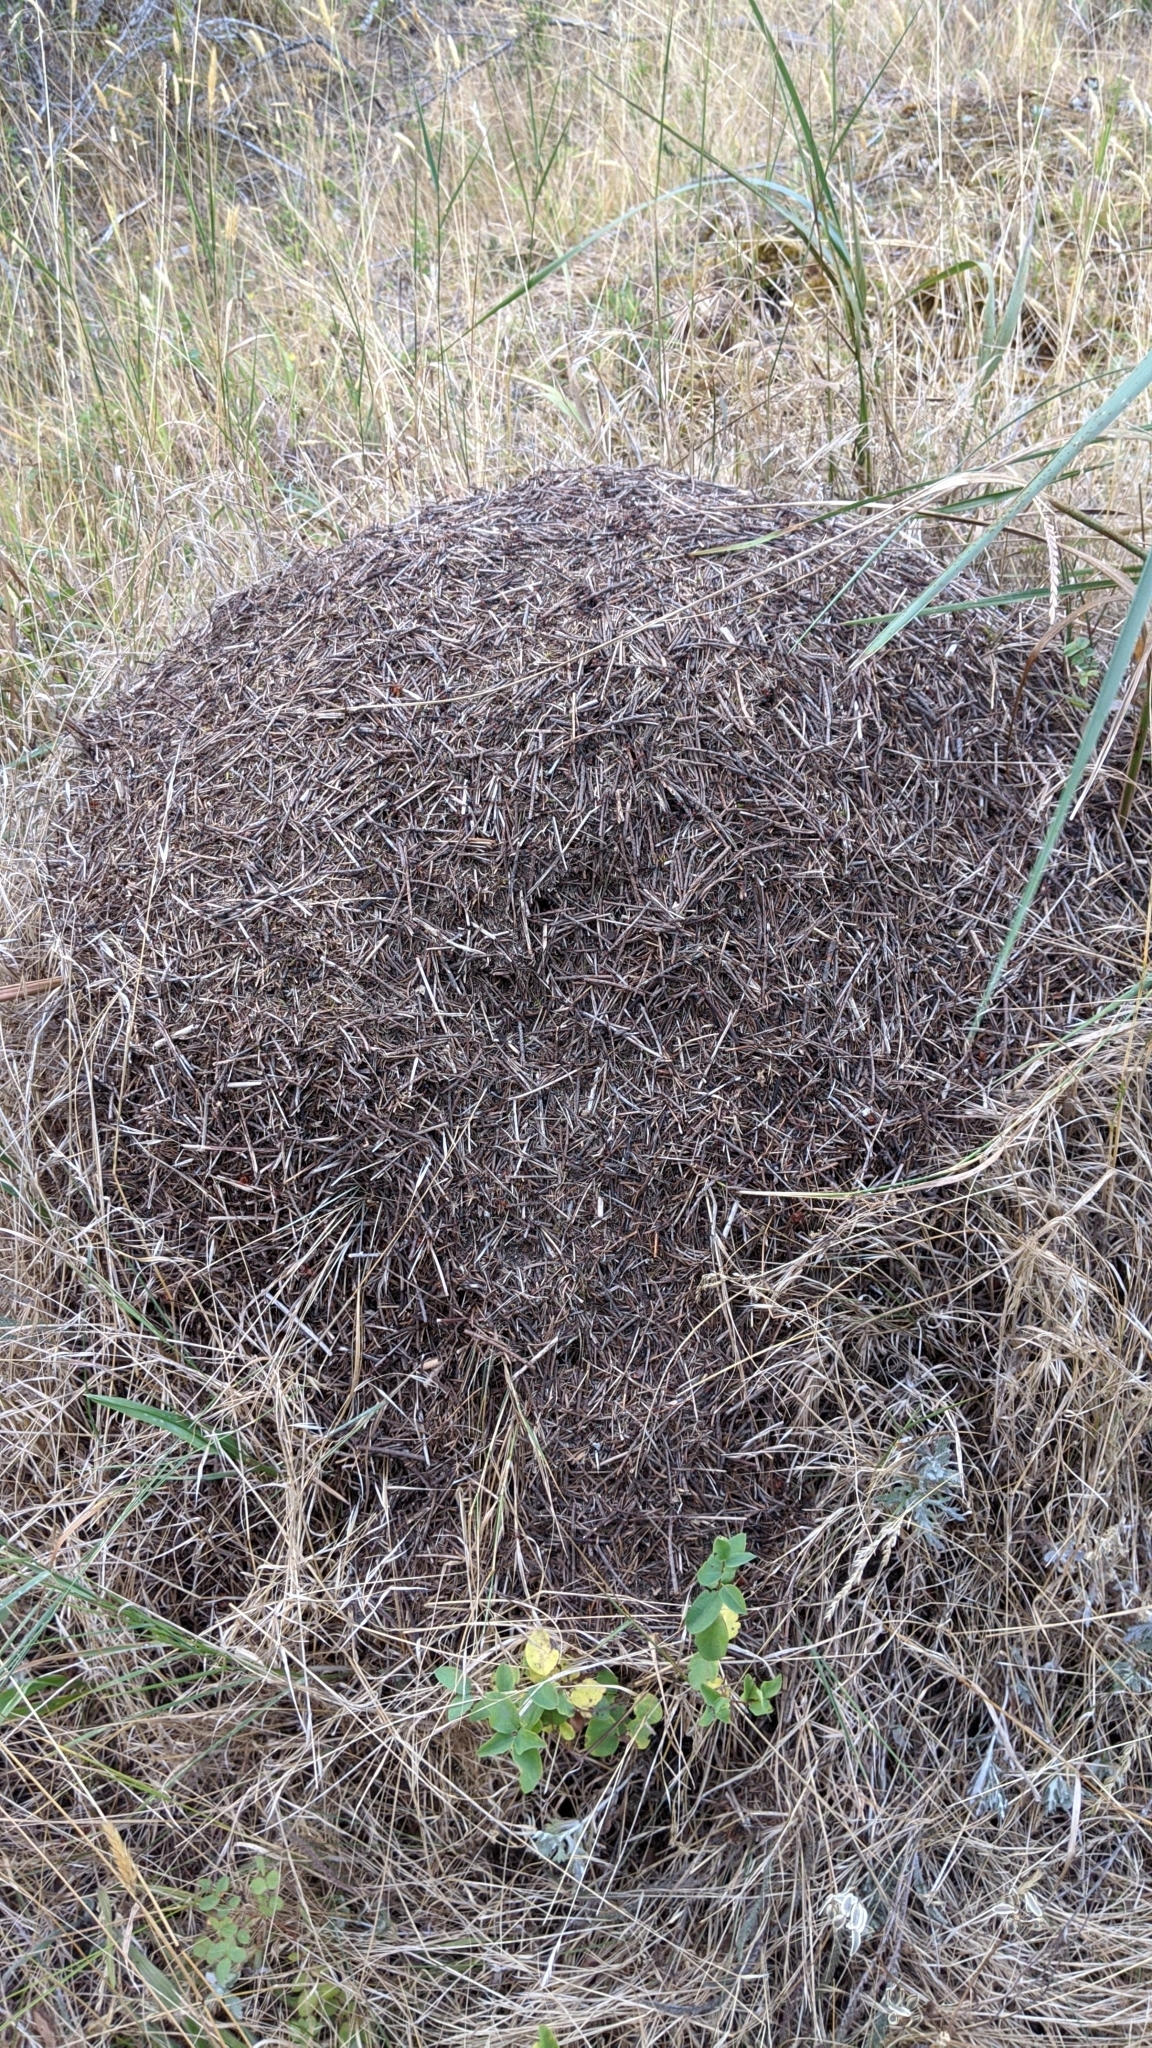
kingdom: Animalia
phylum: Arthropoda
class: Insecta
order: Hymenoptera
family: Formicidae
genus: Formica
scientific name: Formica obscuripes
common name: Western thatching ant
